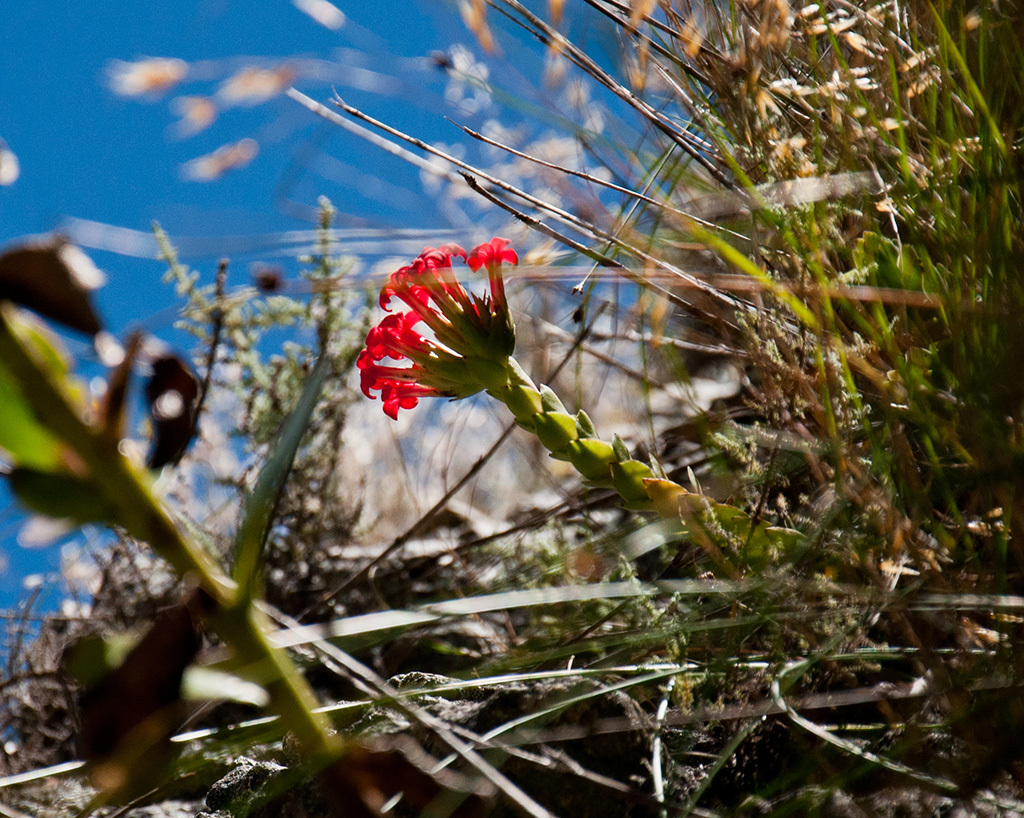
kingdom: Plantae
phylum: Tracheophyta
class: Magnoliopsida
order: Saxifragales
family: Crassulaceae
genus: Crassula
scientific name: Crassula coccinea
